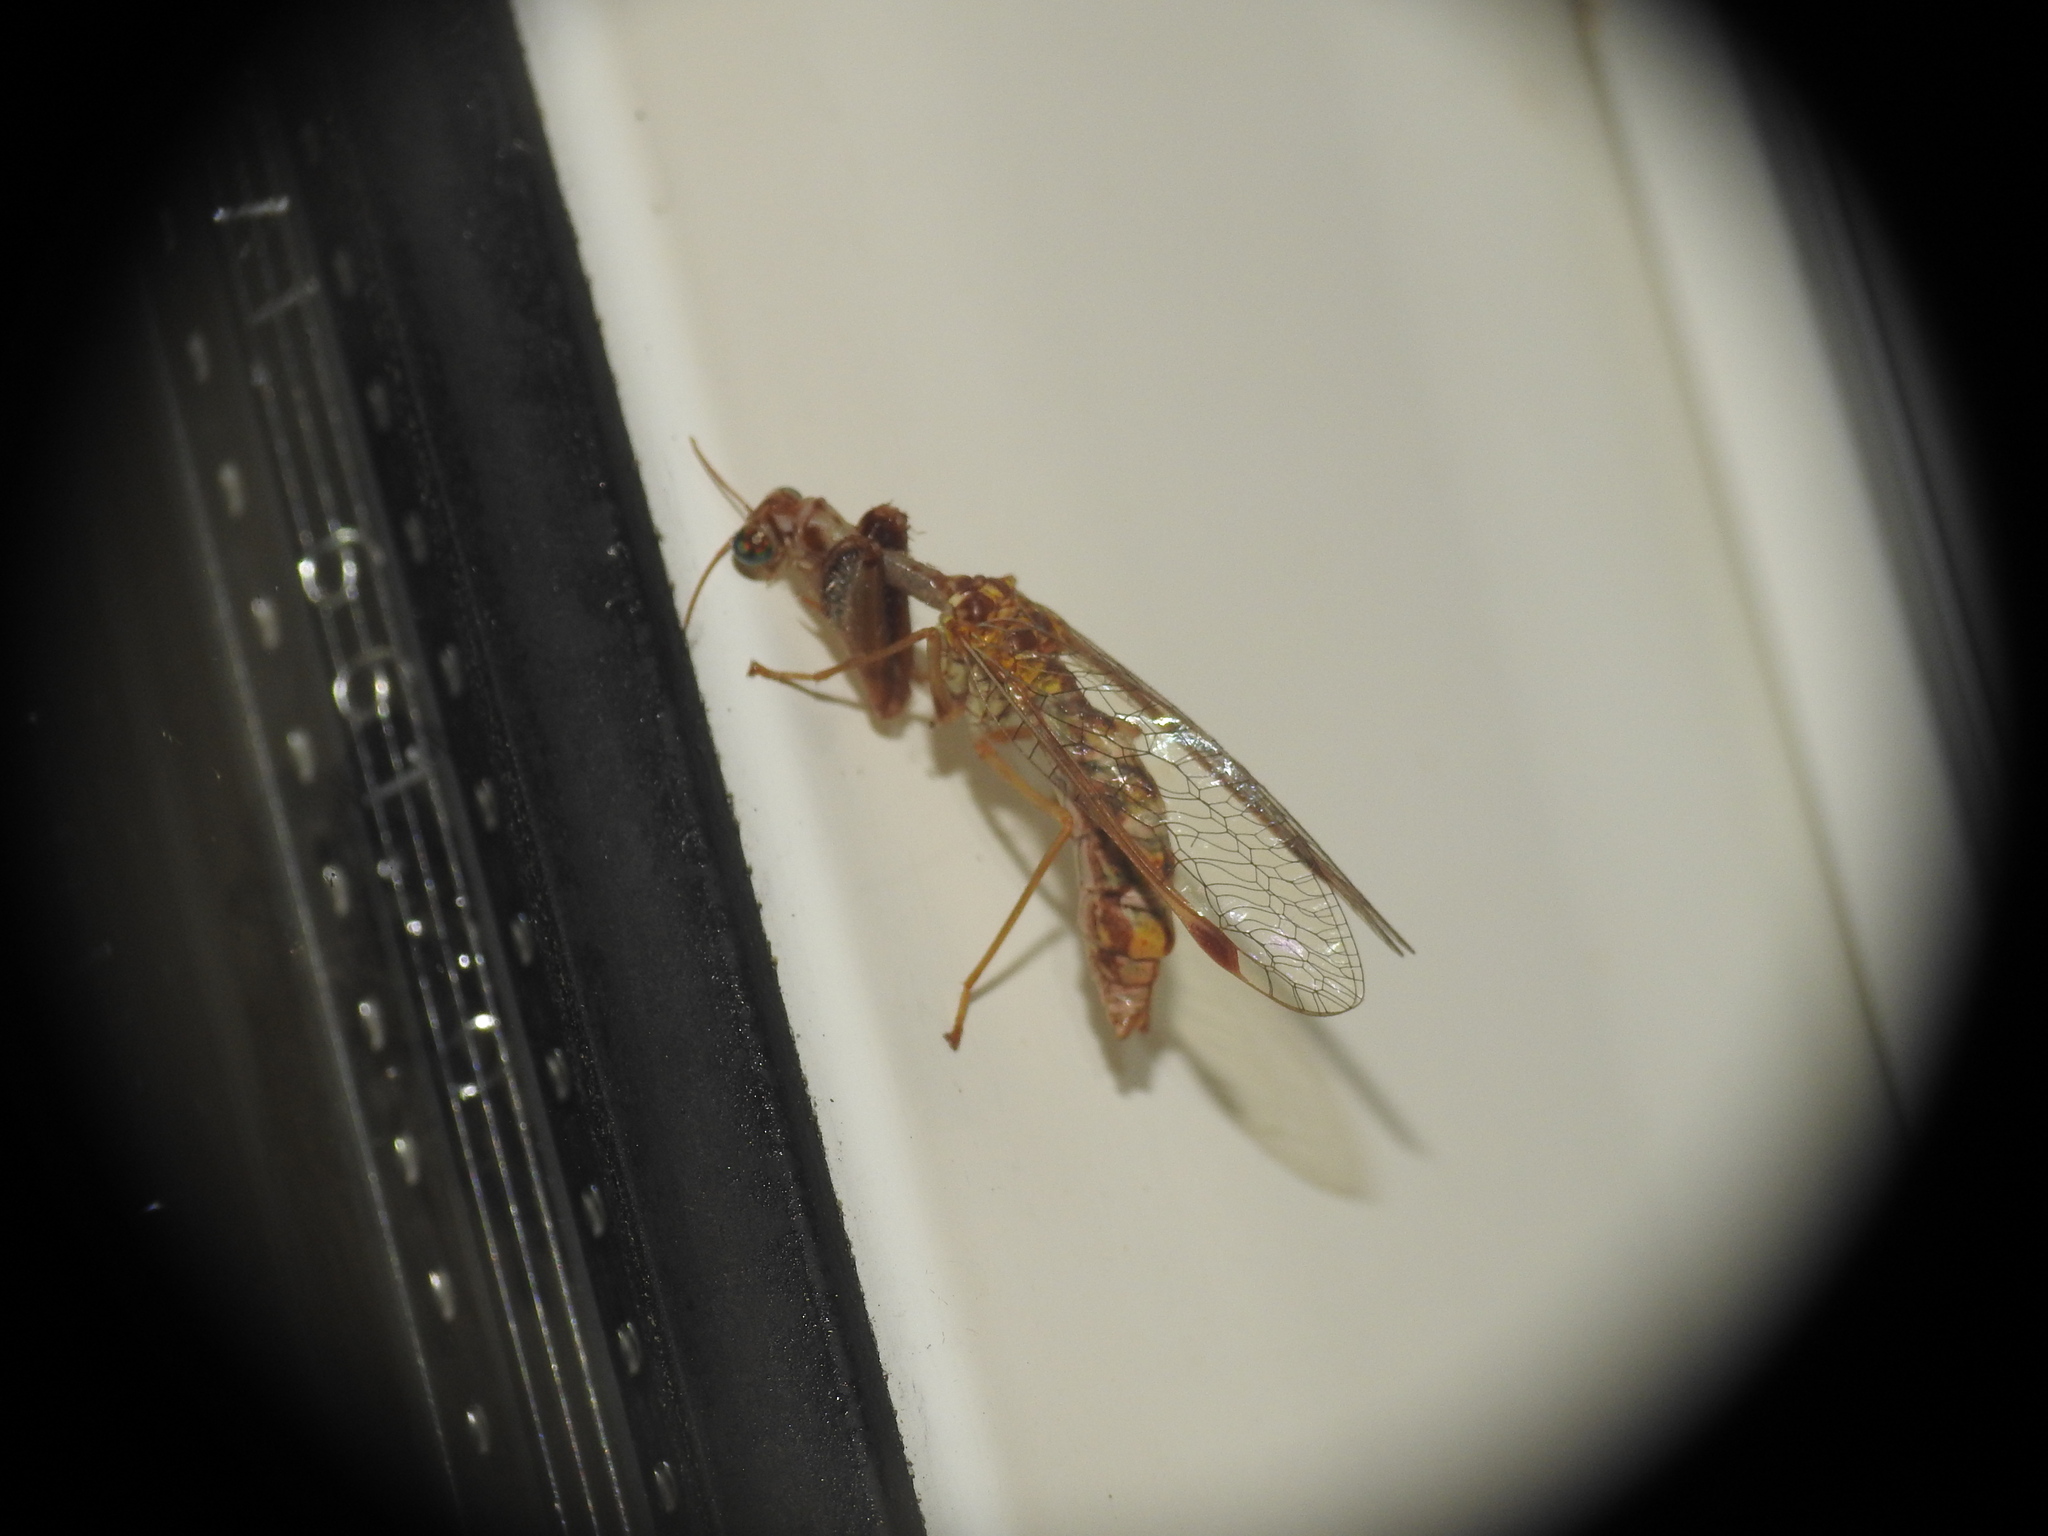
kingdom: Animalia
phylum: Arthropoda
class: Insecta
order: Neuroptera
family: Mantispidae
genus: Mantispa
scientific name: Mantispa styriaca
